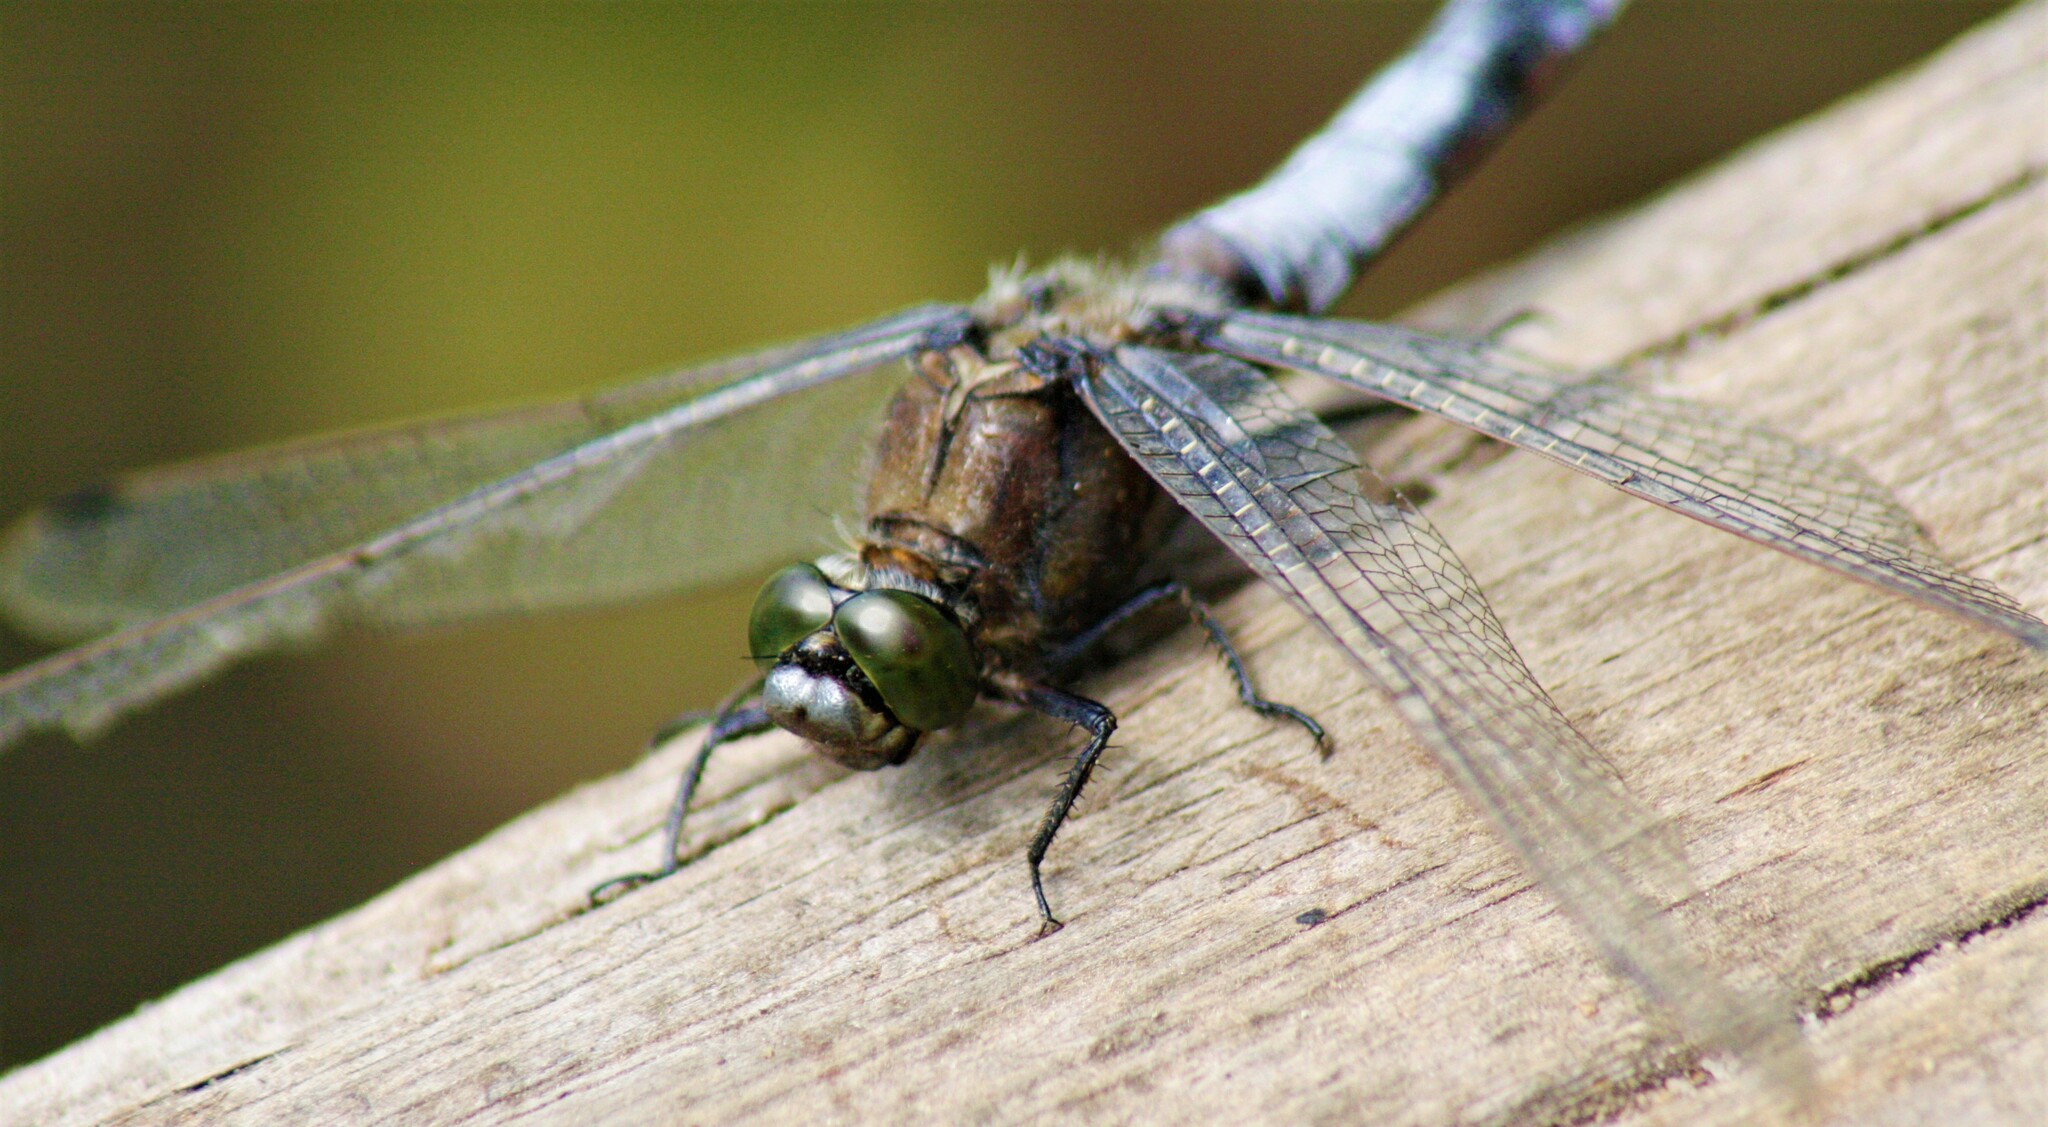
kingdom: Animalia
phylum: Arthropoda
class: Insecta
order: Odonata
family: Libellulidae
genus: Orthetrum
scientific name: Orthetrum cancellatum
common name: Black-tailed skimmer
